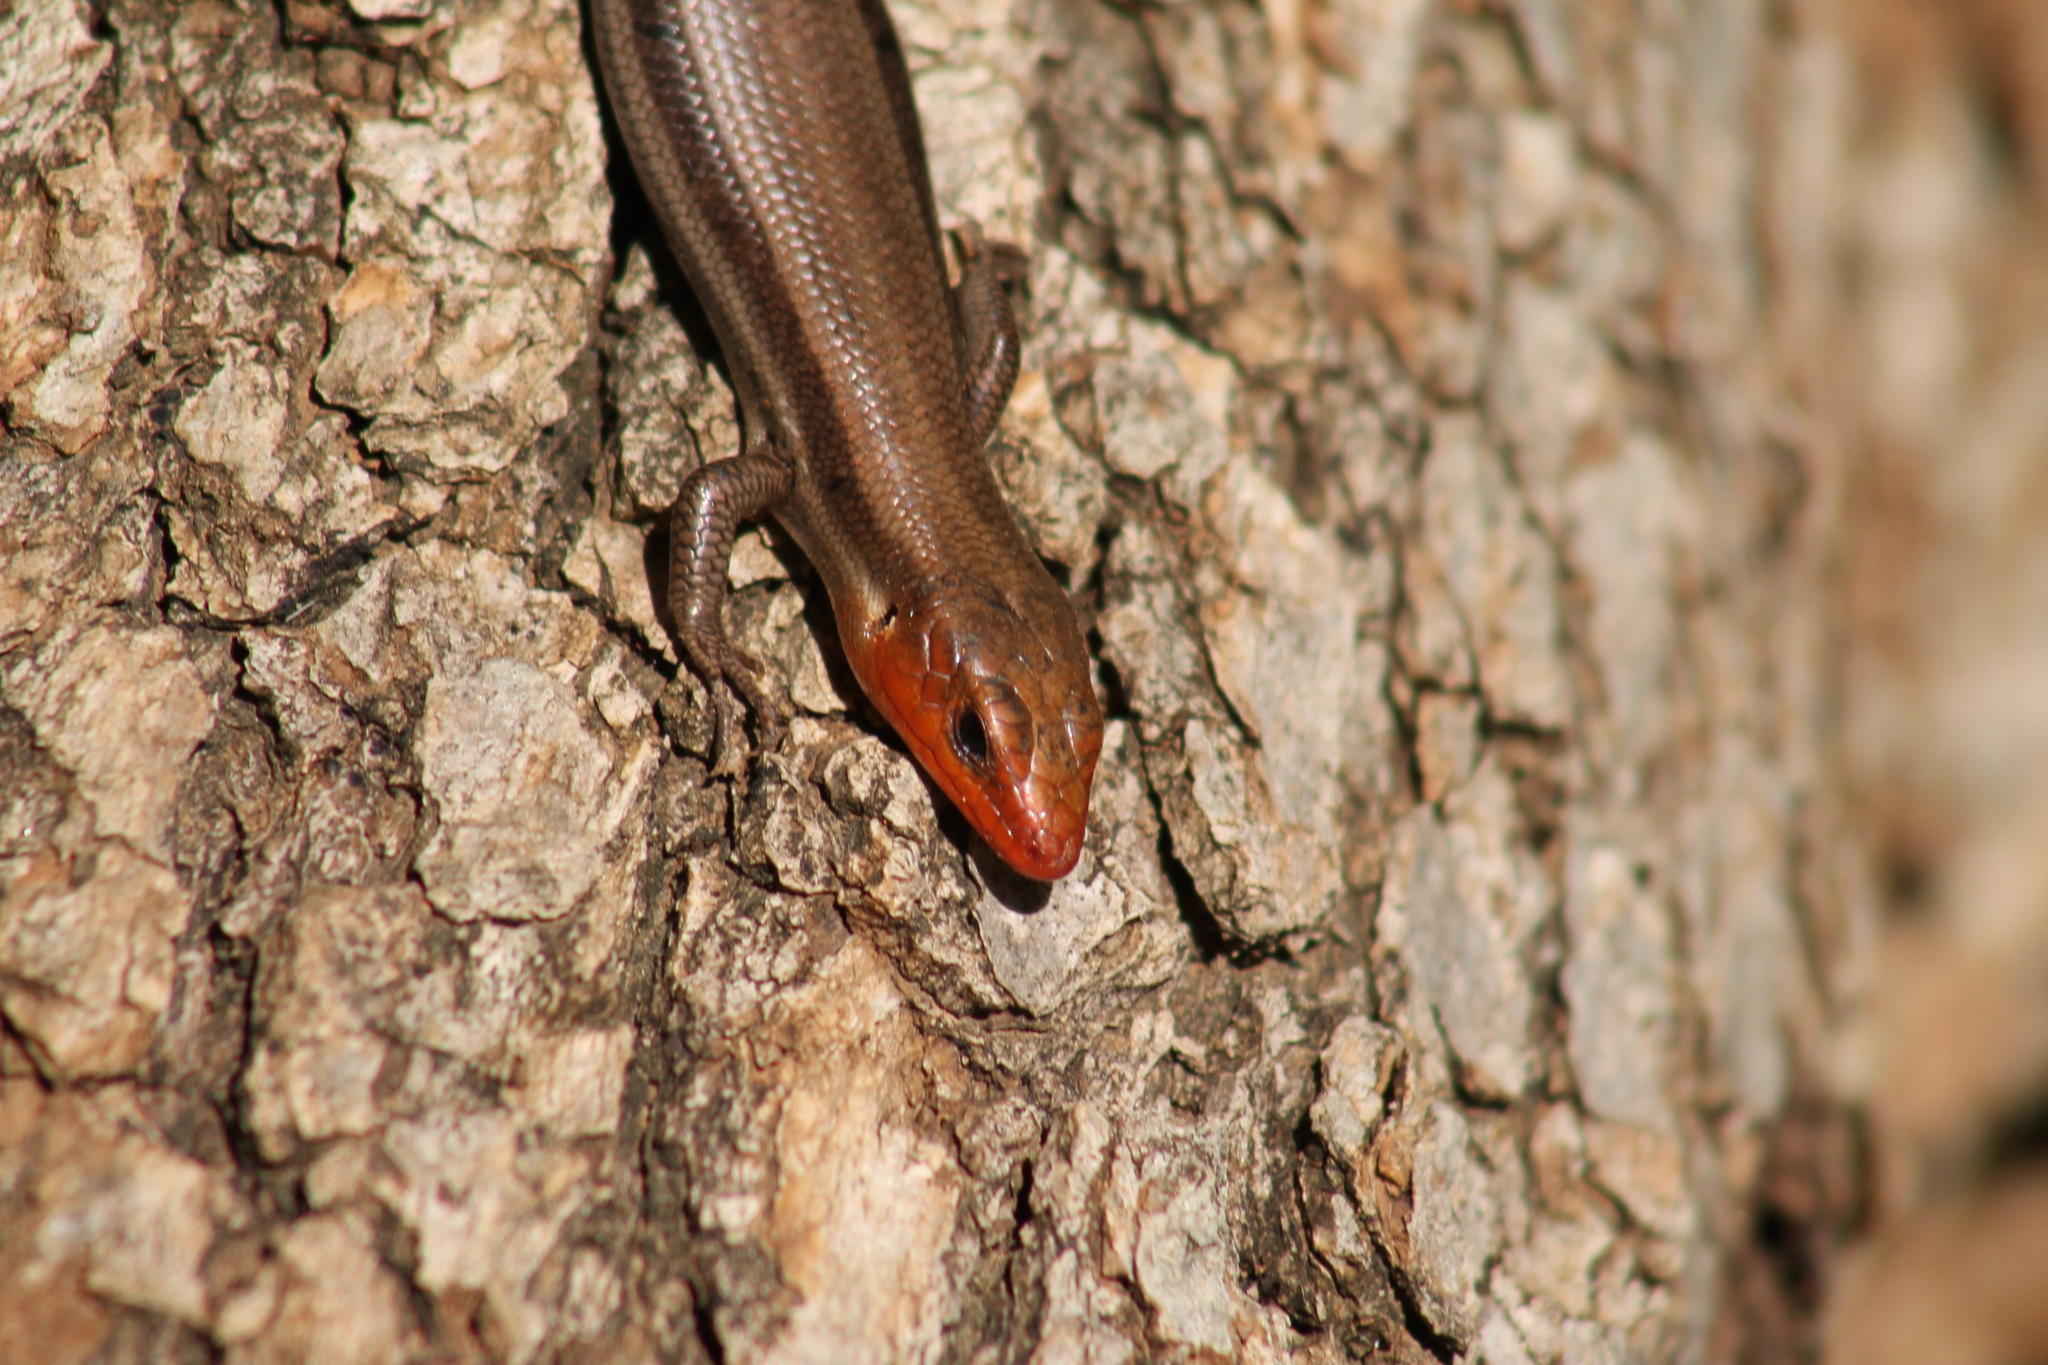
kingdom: Animalia
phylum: Chordata
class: Squamata
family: Scincidae
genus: Plestiodon
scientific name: Plestiodon fasciatus
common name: Five-lined skink
